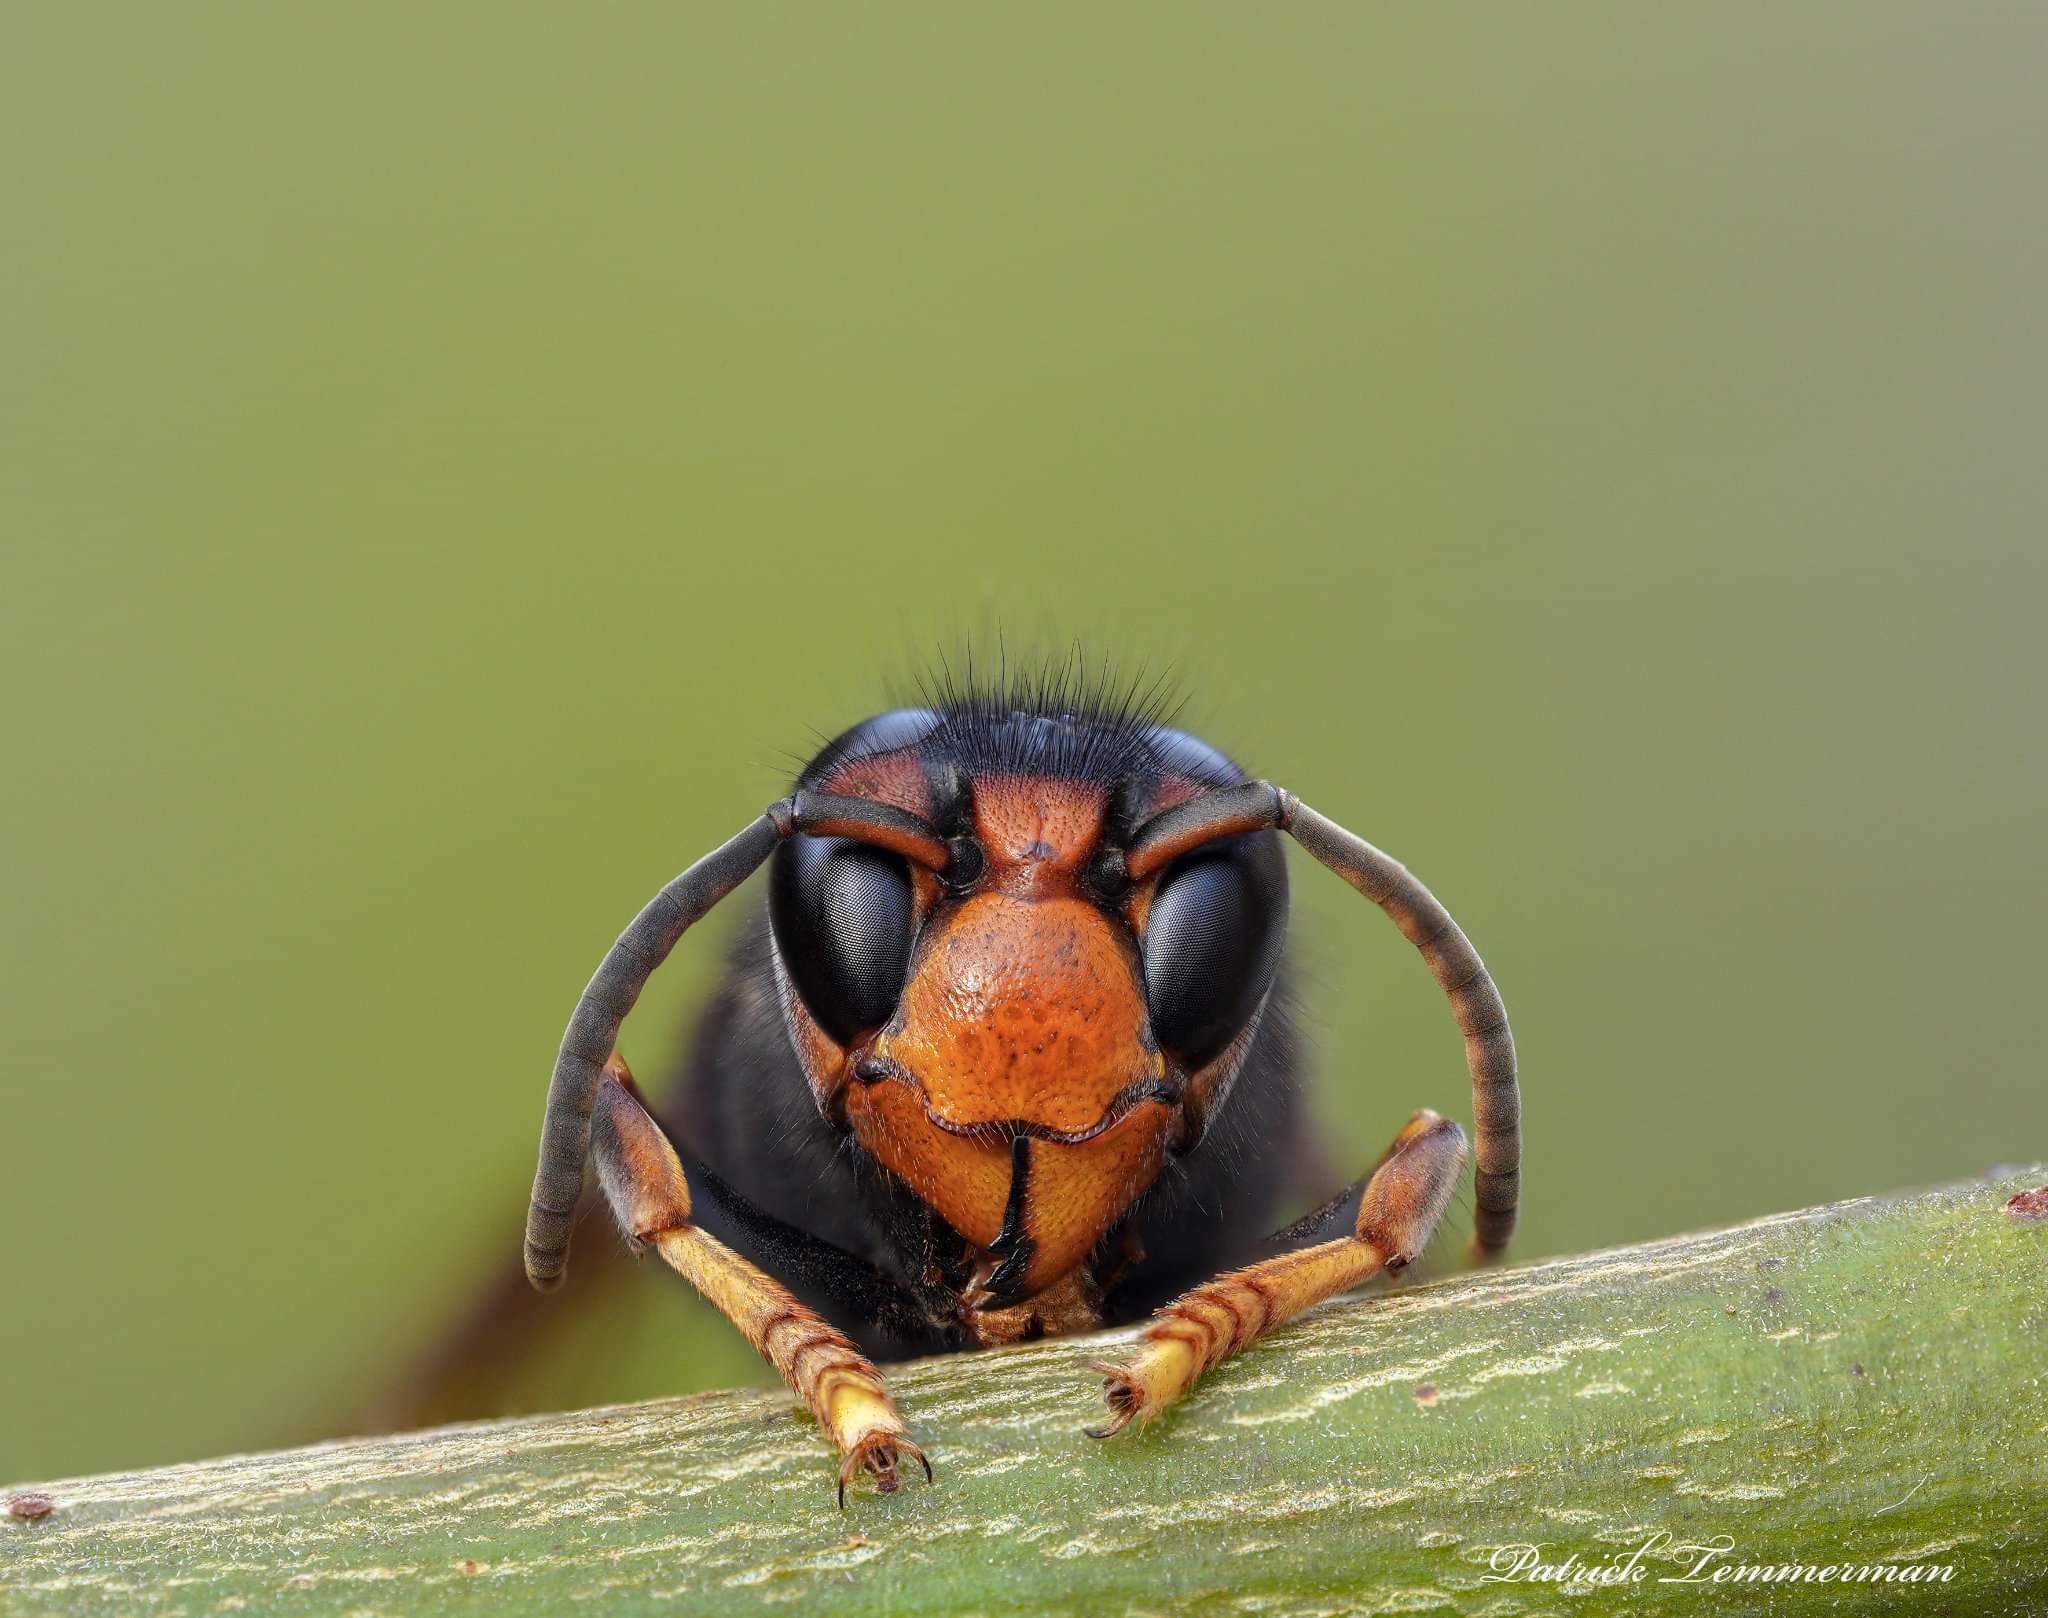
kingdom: Animalia
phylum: Arthropoda
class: Insecta
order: Hymenoptera
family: Vespidae
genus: Vespa
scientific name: Vespa velutina
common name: Asian hornet
